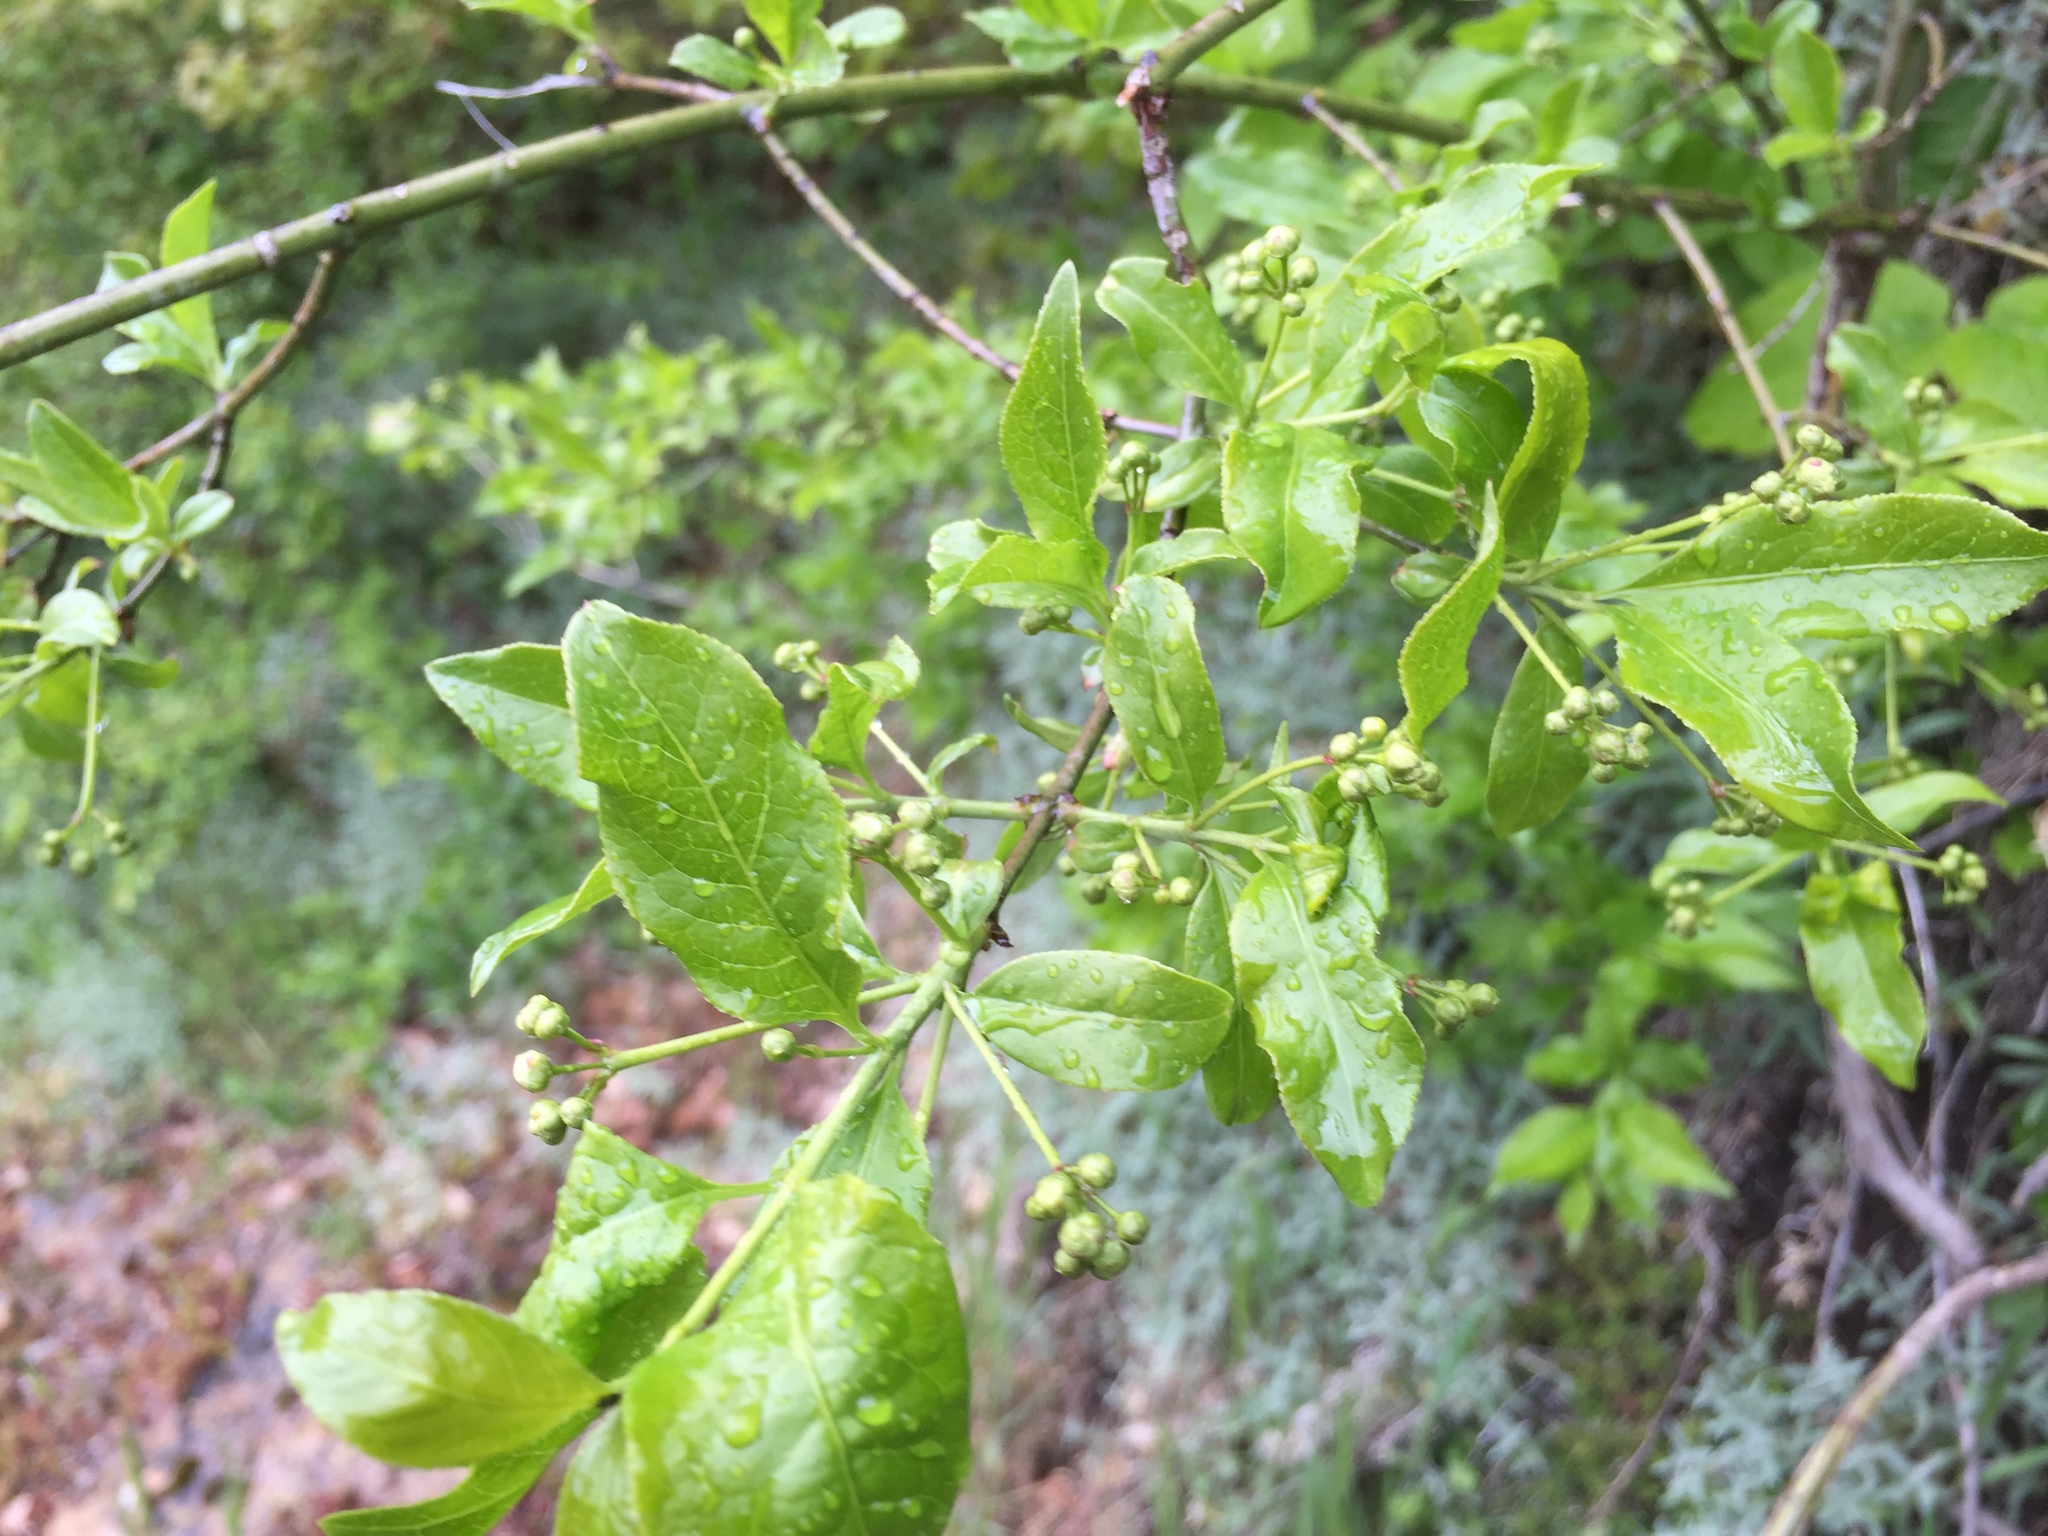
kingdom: Plantae
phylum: Tracheophyta
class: Magnoliopsida
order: Celastrales
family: Celastraceae
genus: Euonymus
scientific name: Euonymus europaeus
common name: Spindle
